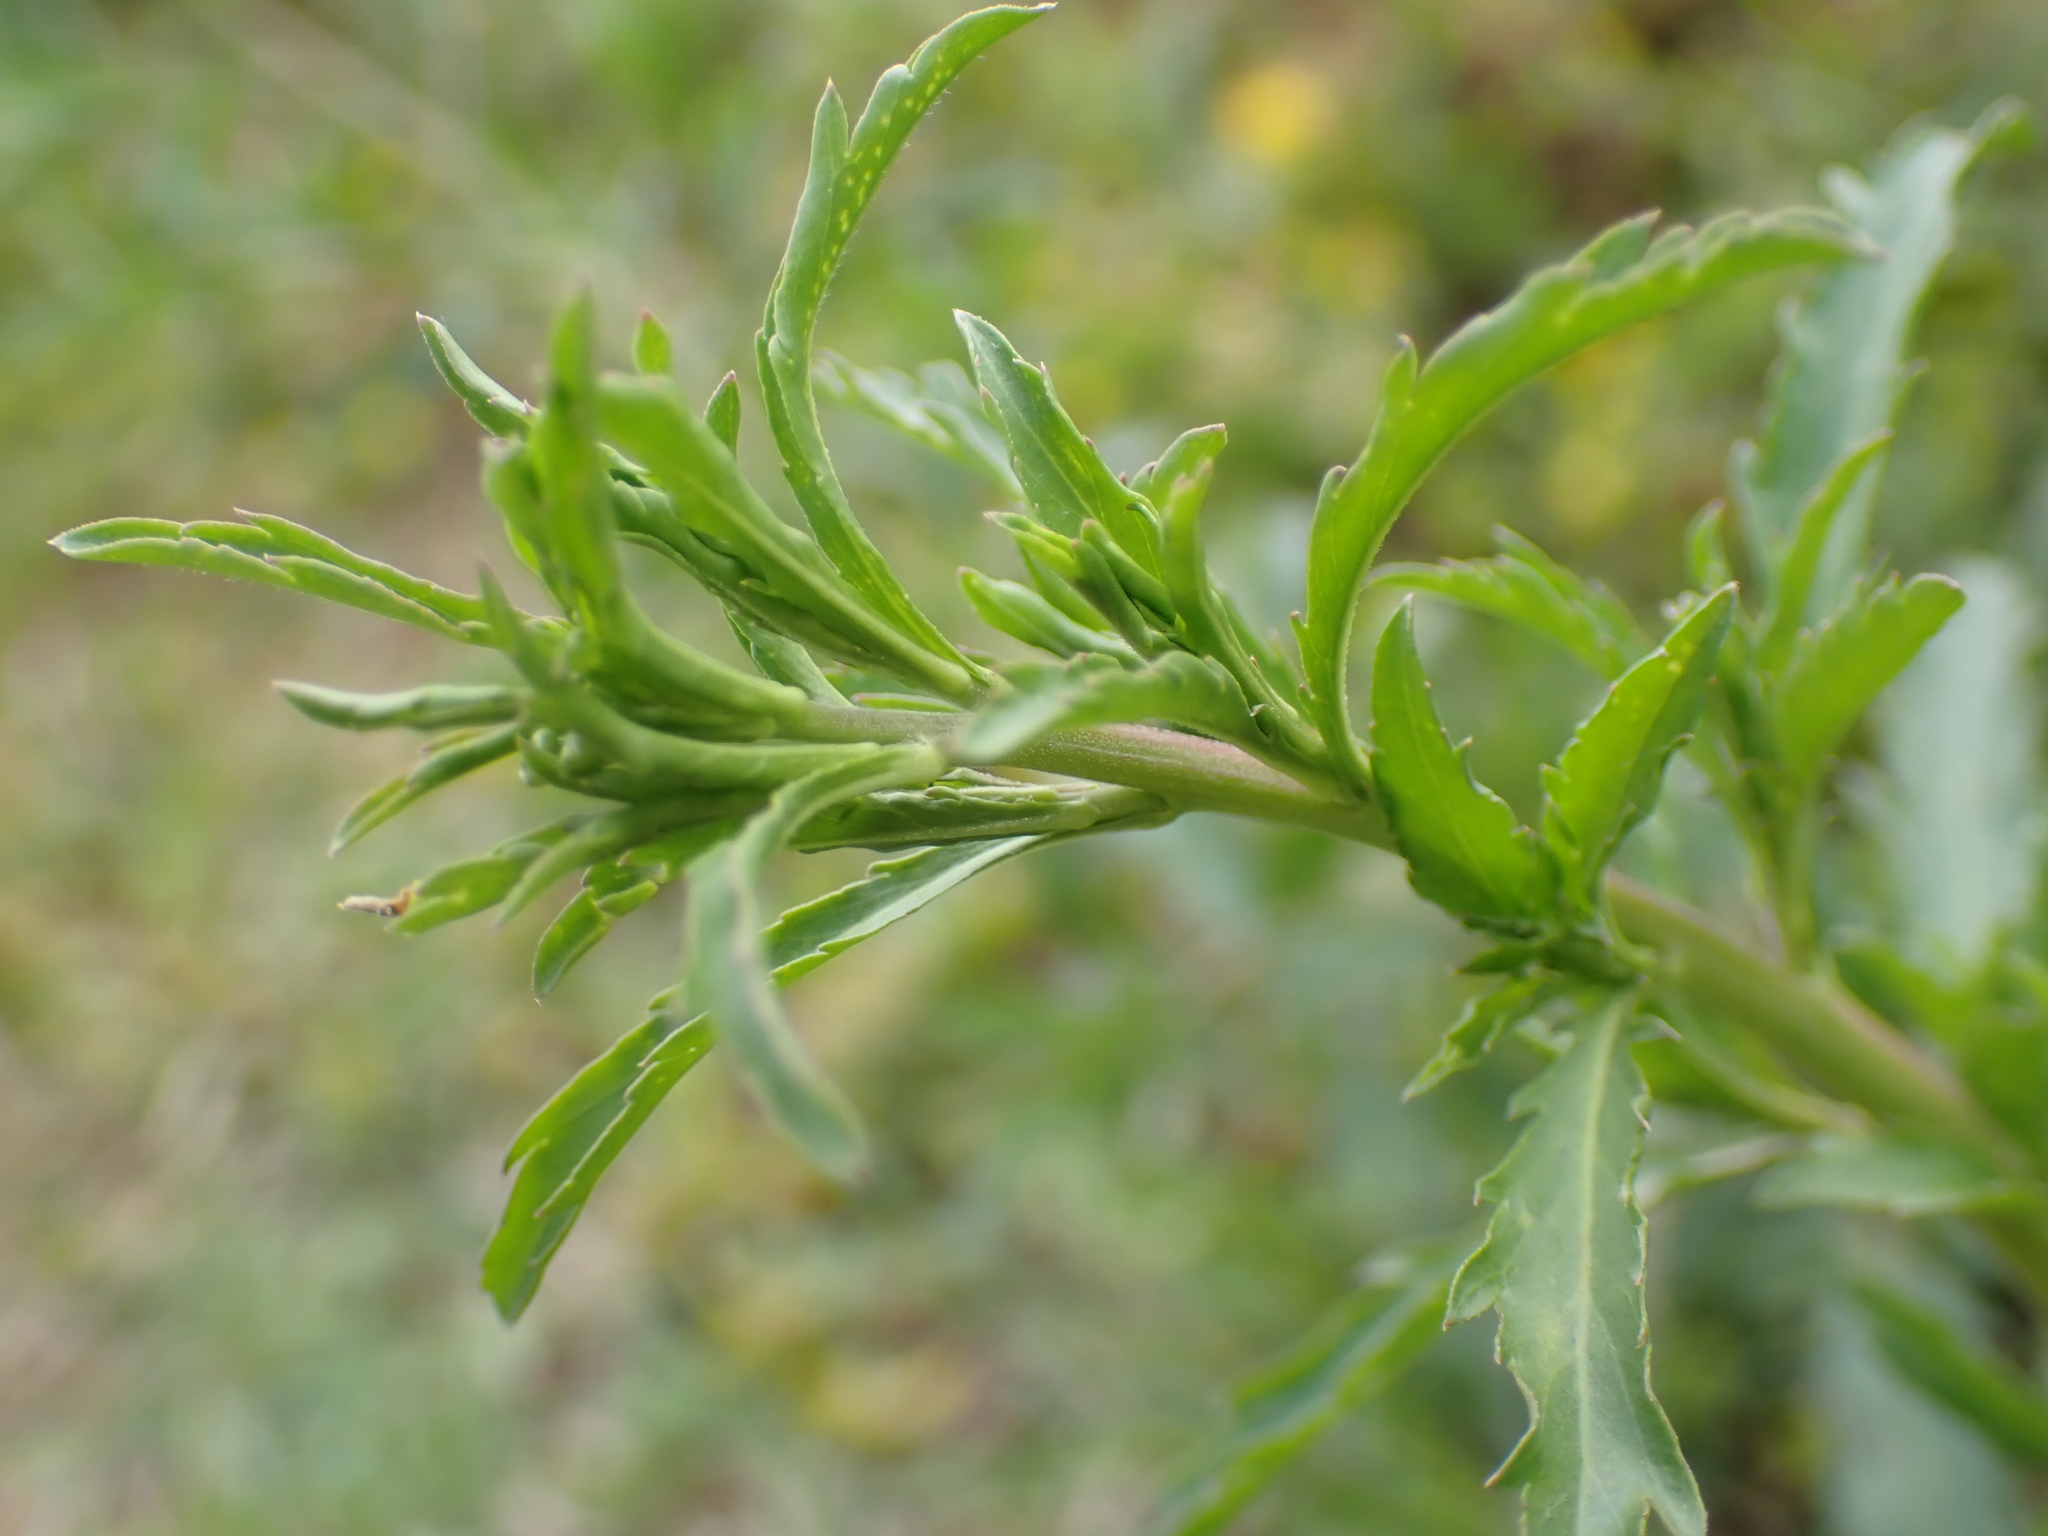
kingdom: Plantae
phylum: Tracheophyta
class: Magnoliopsida
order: Brassicales
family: Brassicaceae
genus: Lepidium
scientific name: Lepidium virginicum
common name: Least pepperwort
